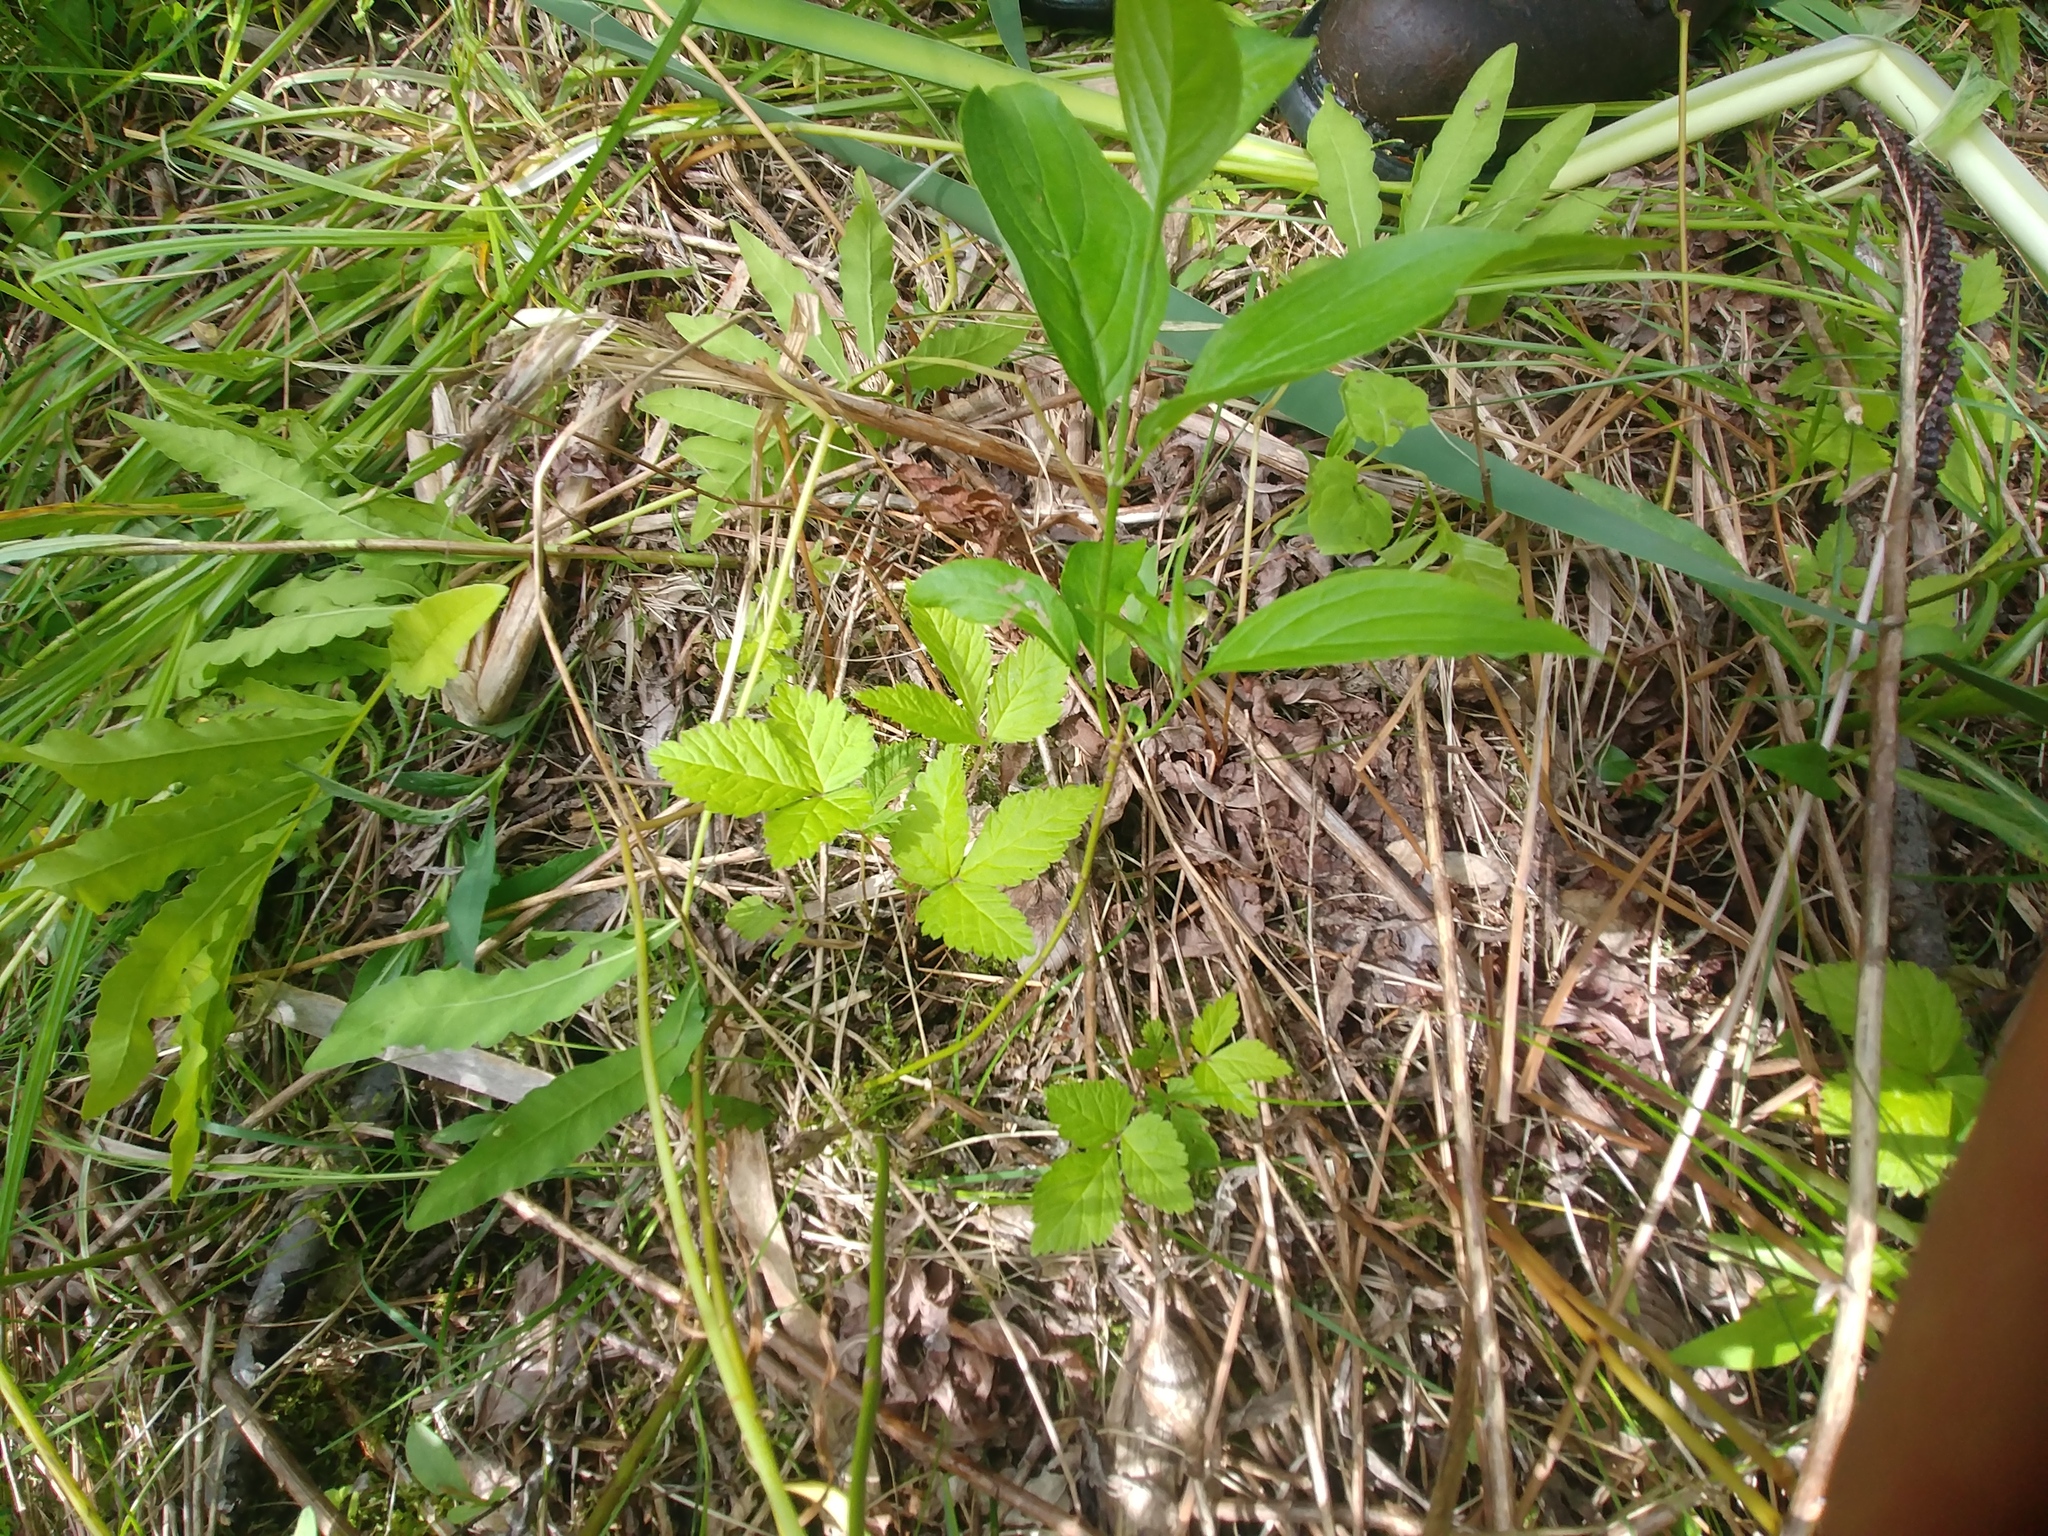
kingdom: Plantae
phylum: Tracheophyta
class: Magnoliopsida
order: Rosales
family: Rosaceae
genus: Rubus
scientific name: Rubus pubescens
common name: Dwarf raspberry
